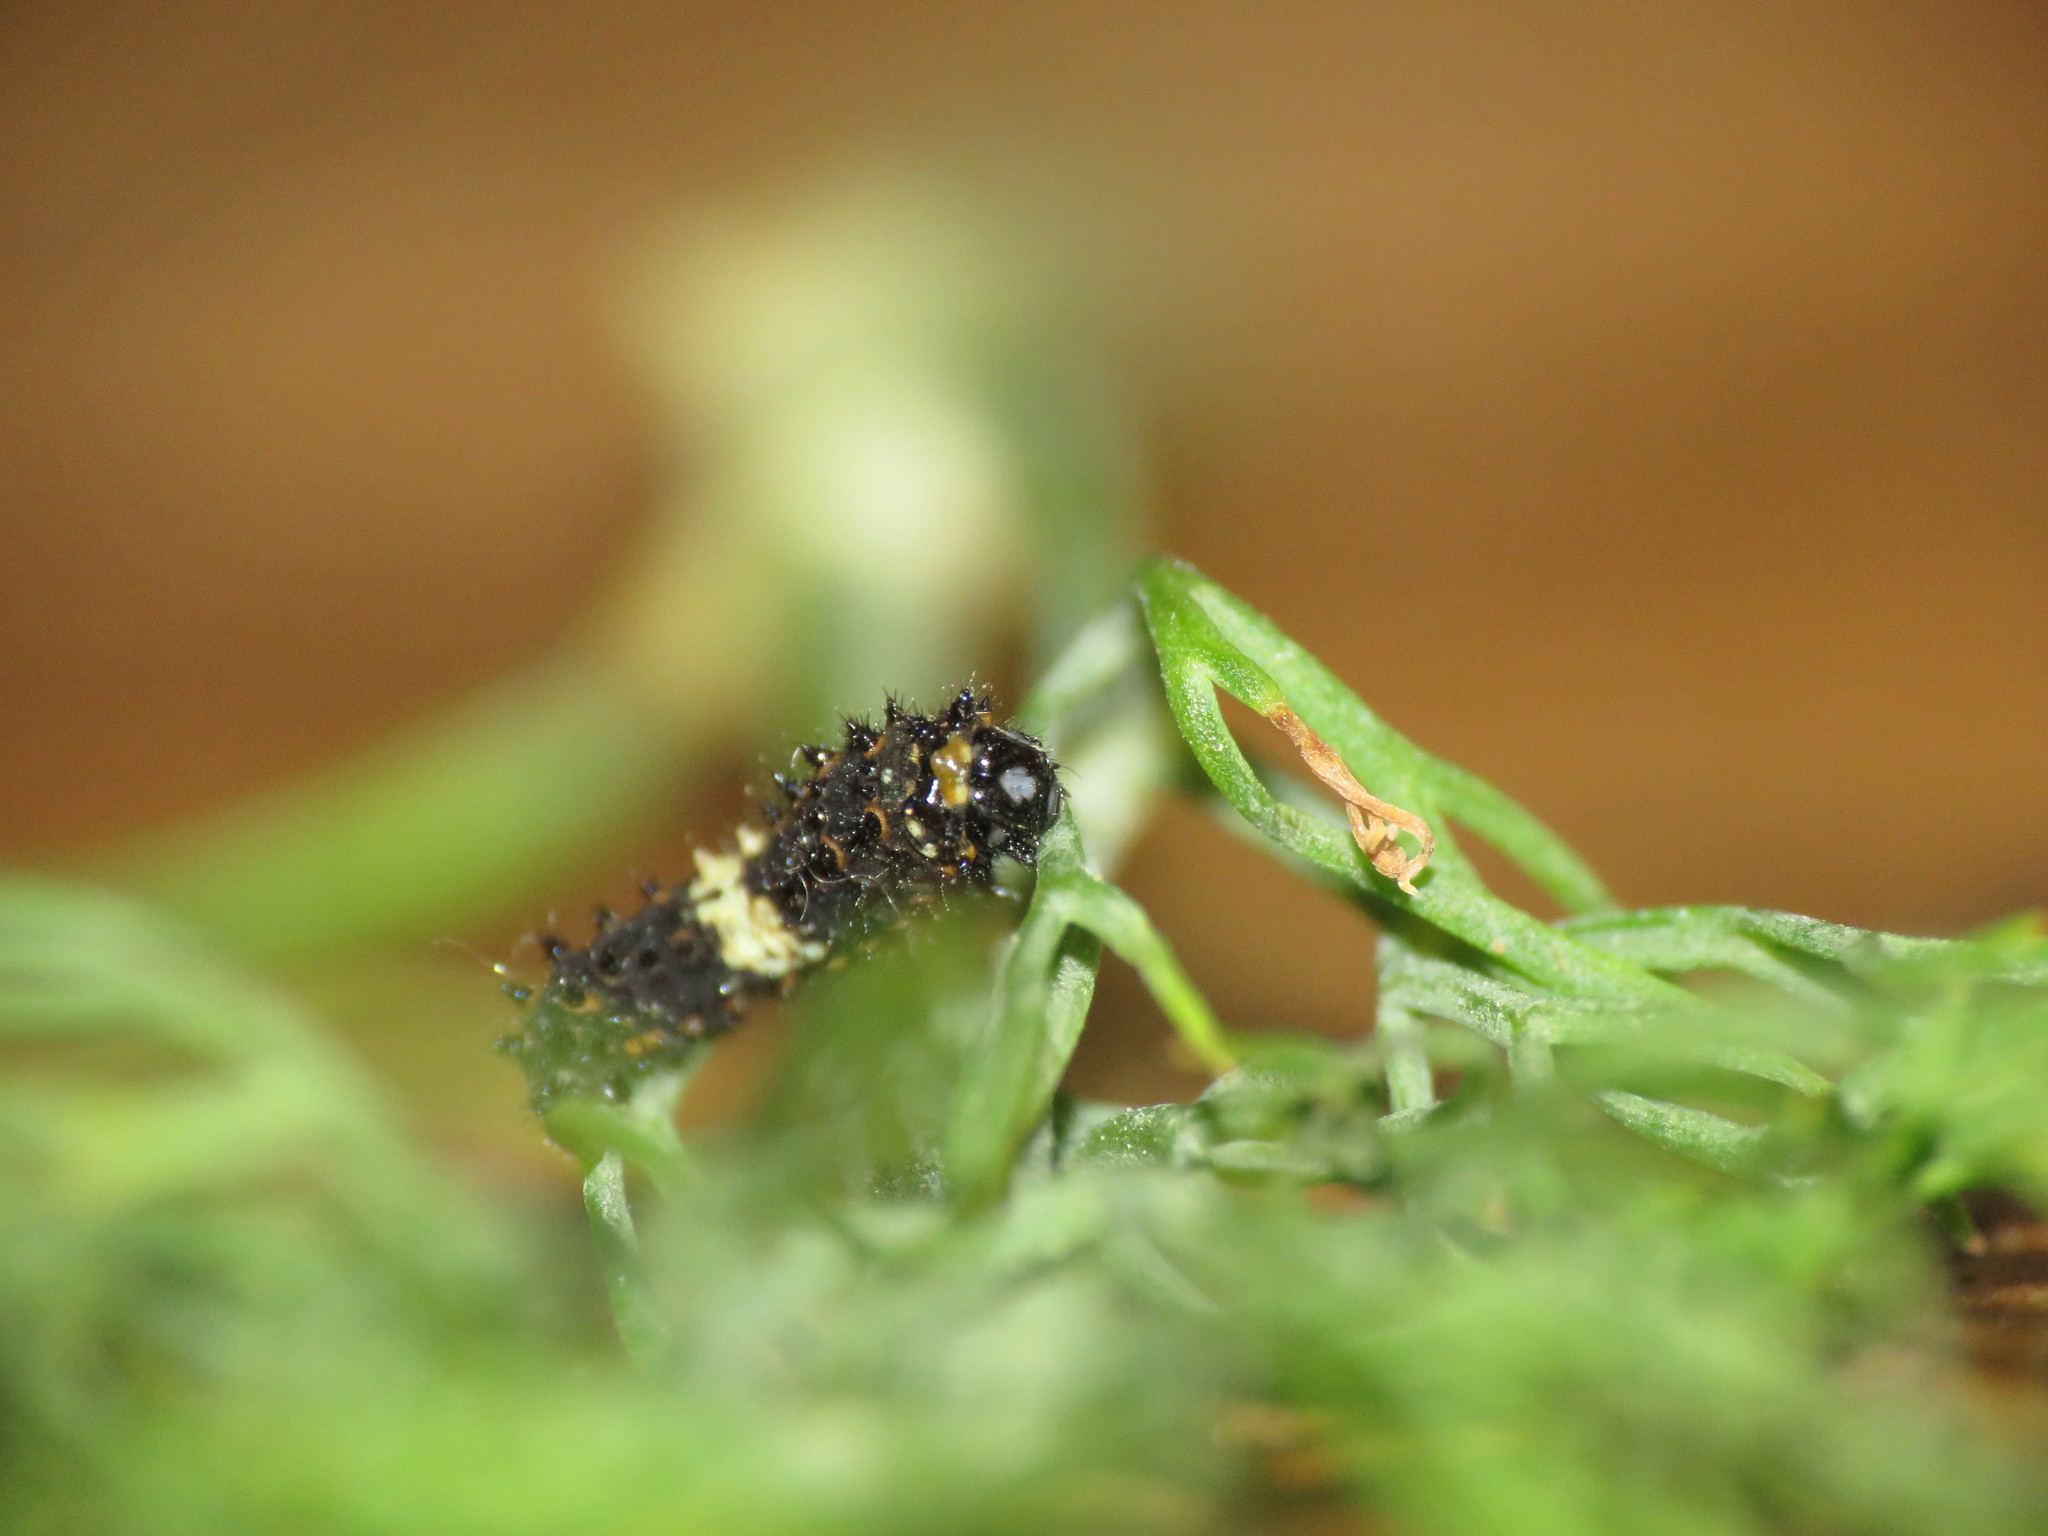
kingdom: Animalia
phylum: Arthropoda
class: Insecta
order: Lepidoptera
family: Papilionidae
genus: Papilio
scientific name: Papilio polyxenes
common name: Black swallowtail
